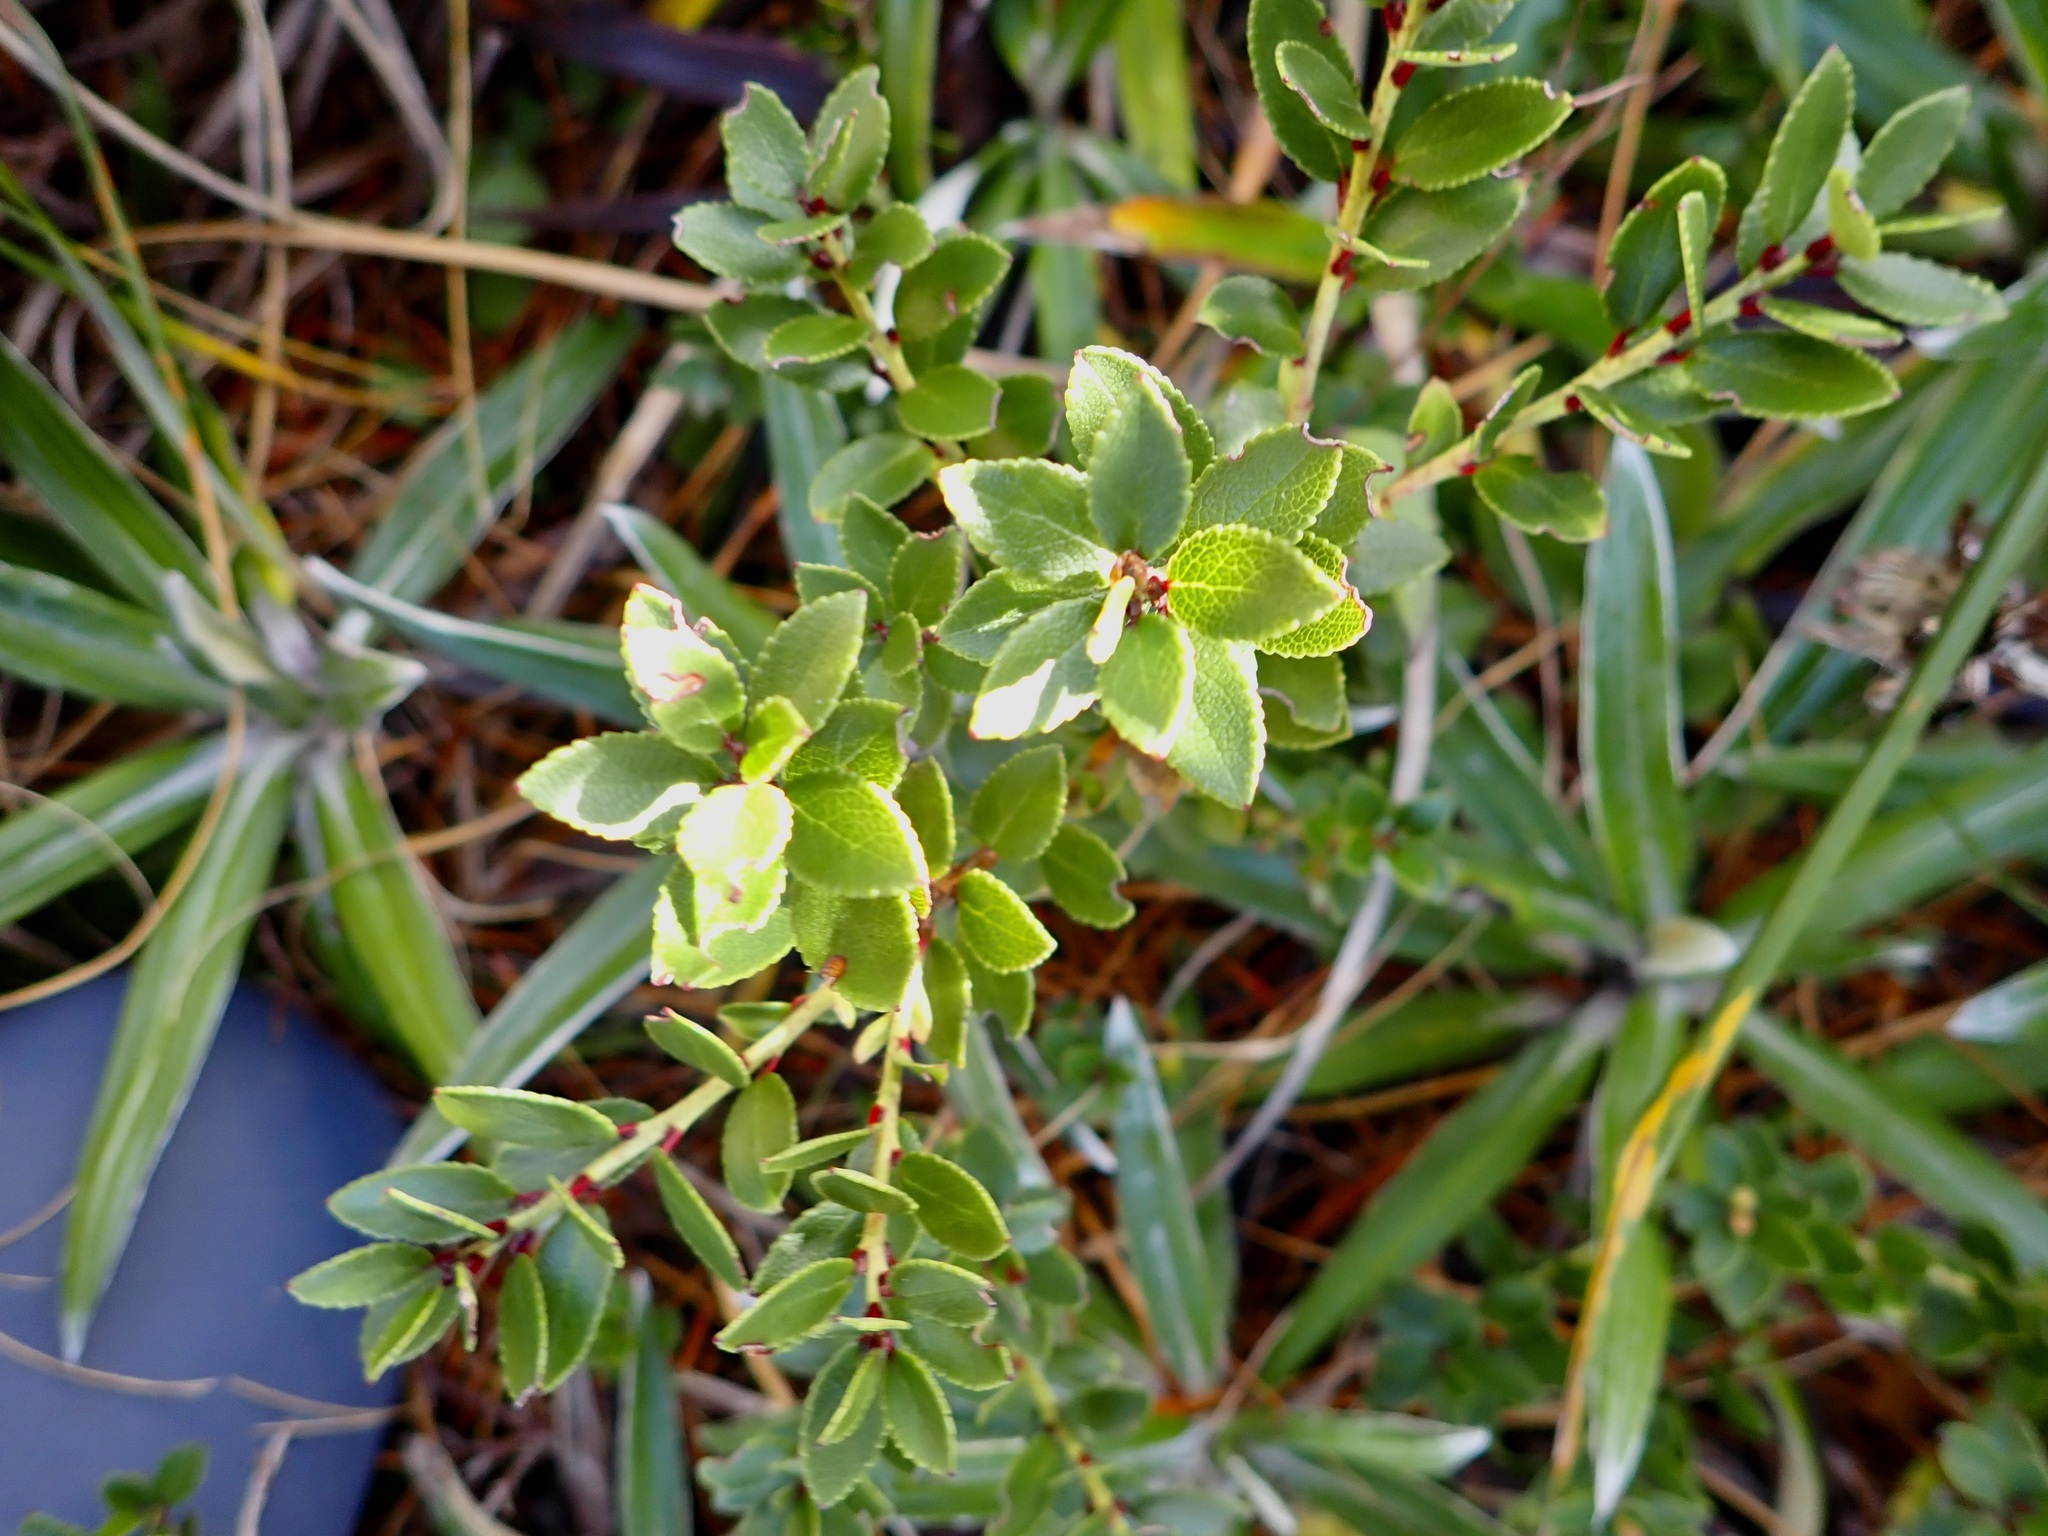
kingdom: Plantae
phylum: Tracheophyta
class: Magnoliopsida
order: Ericales
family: Ericaceae
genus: Gaultheria
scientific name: Gaultheria crassa
